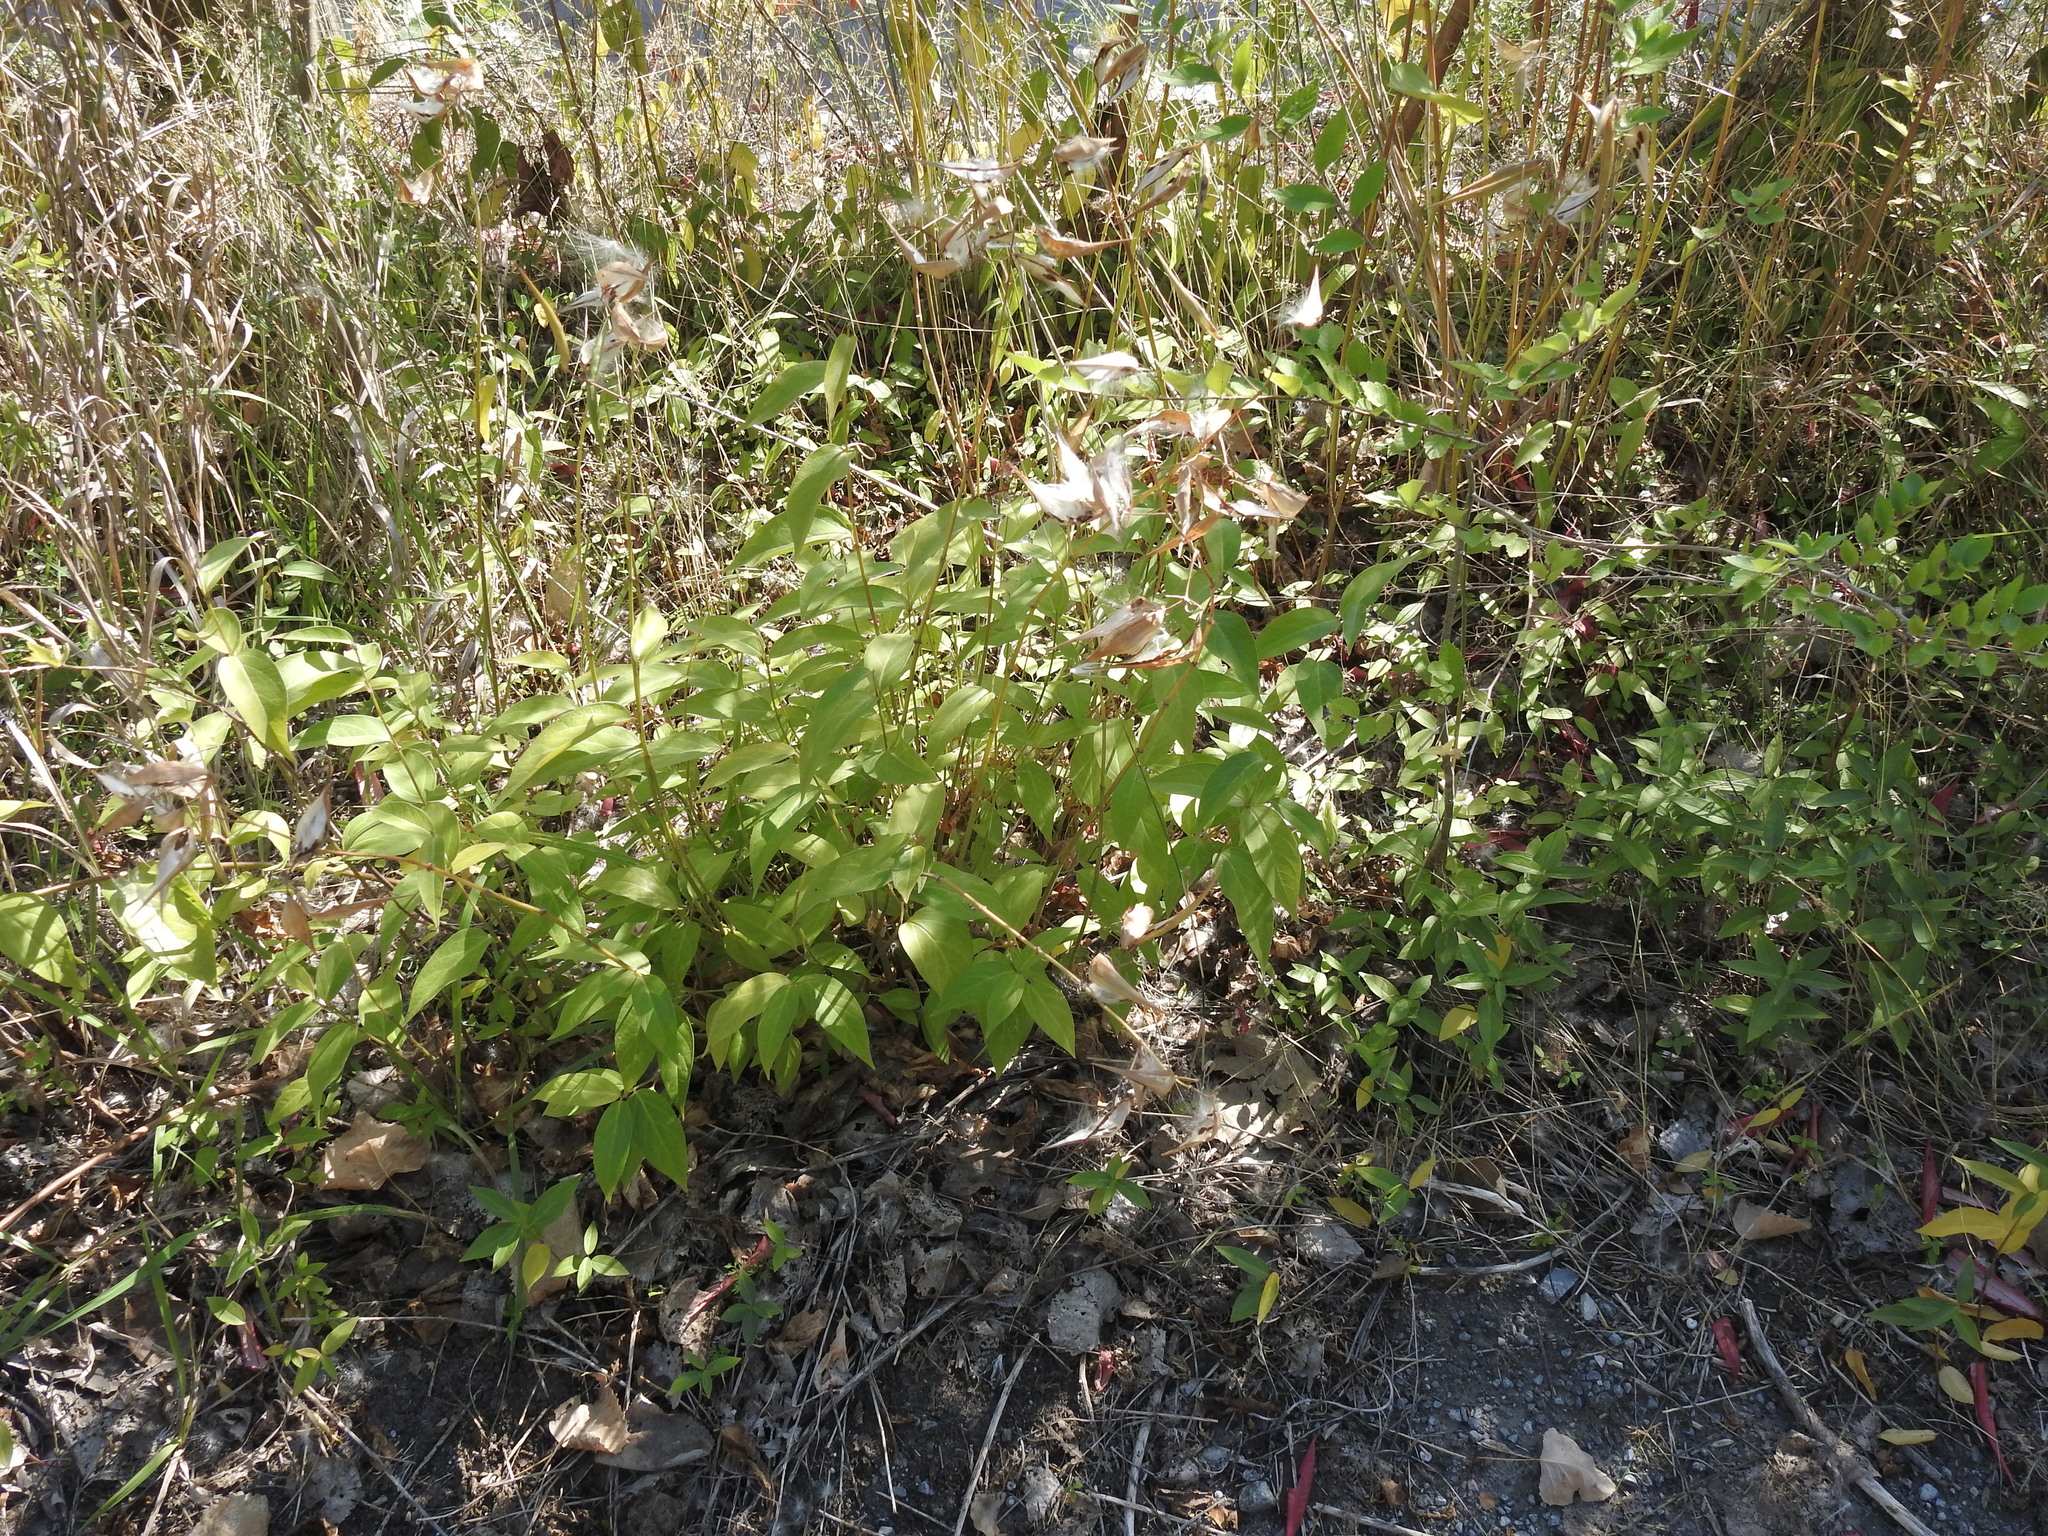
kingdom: Plantae
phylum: Tracheophyta
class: Magnoliopsida
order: Gentianales
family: Apocynaceae
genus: Vincetoxicum
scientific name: Vincetoxicum rossicum
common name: Dog-strangling vine
